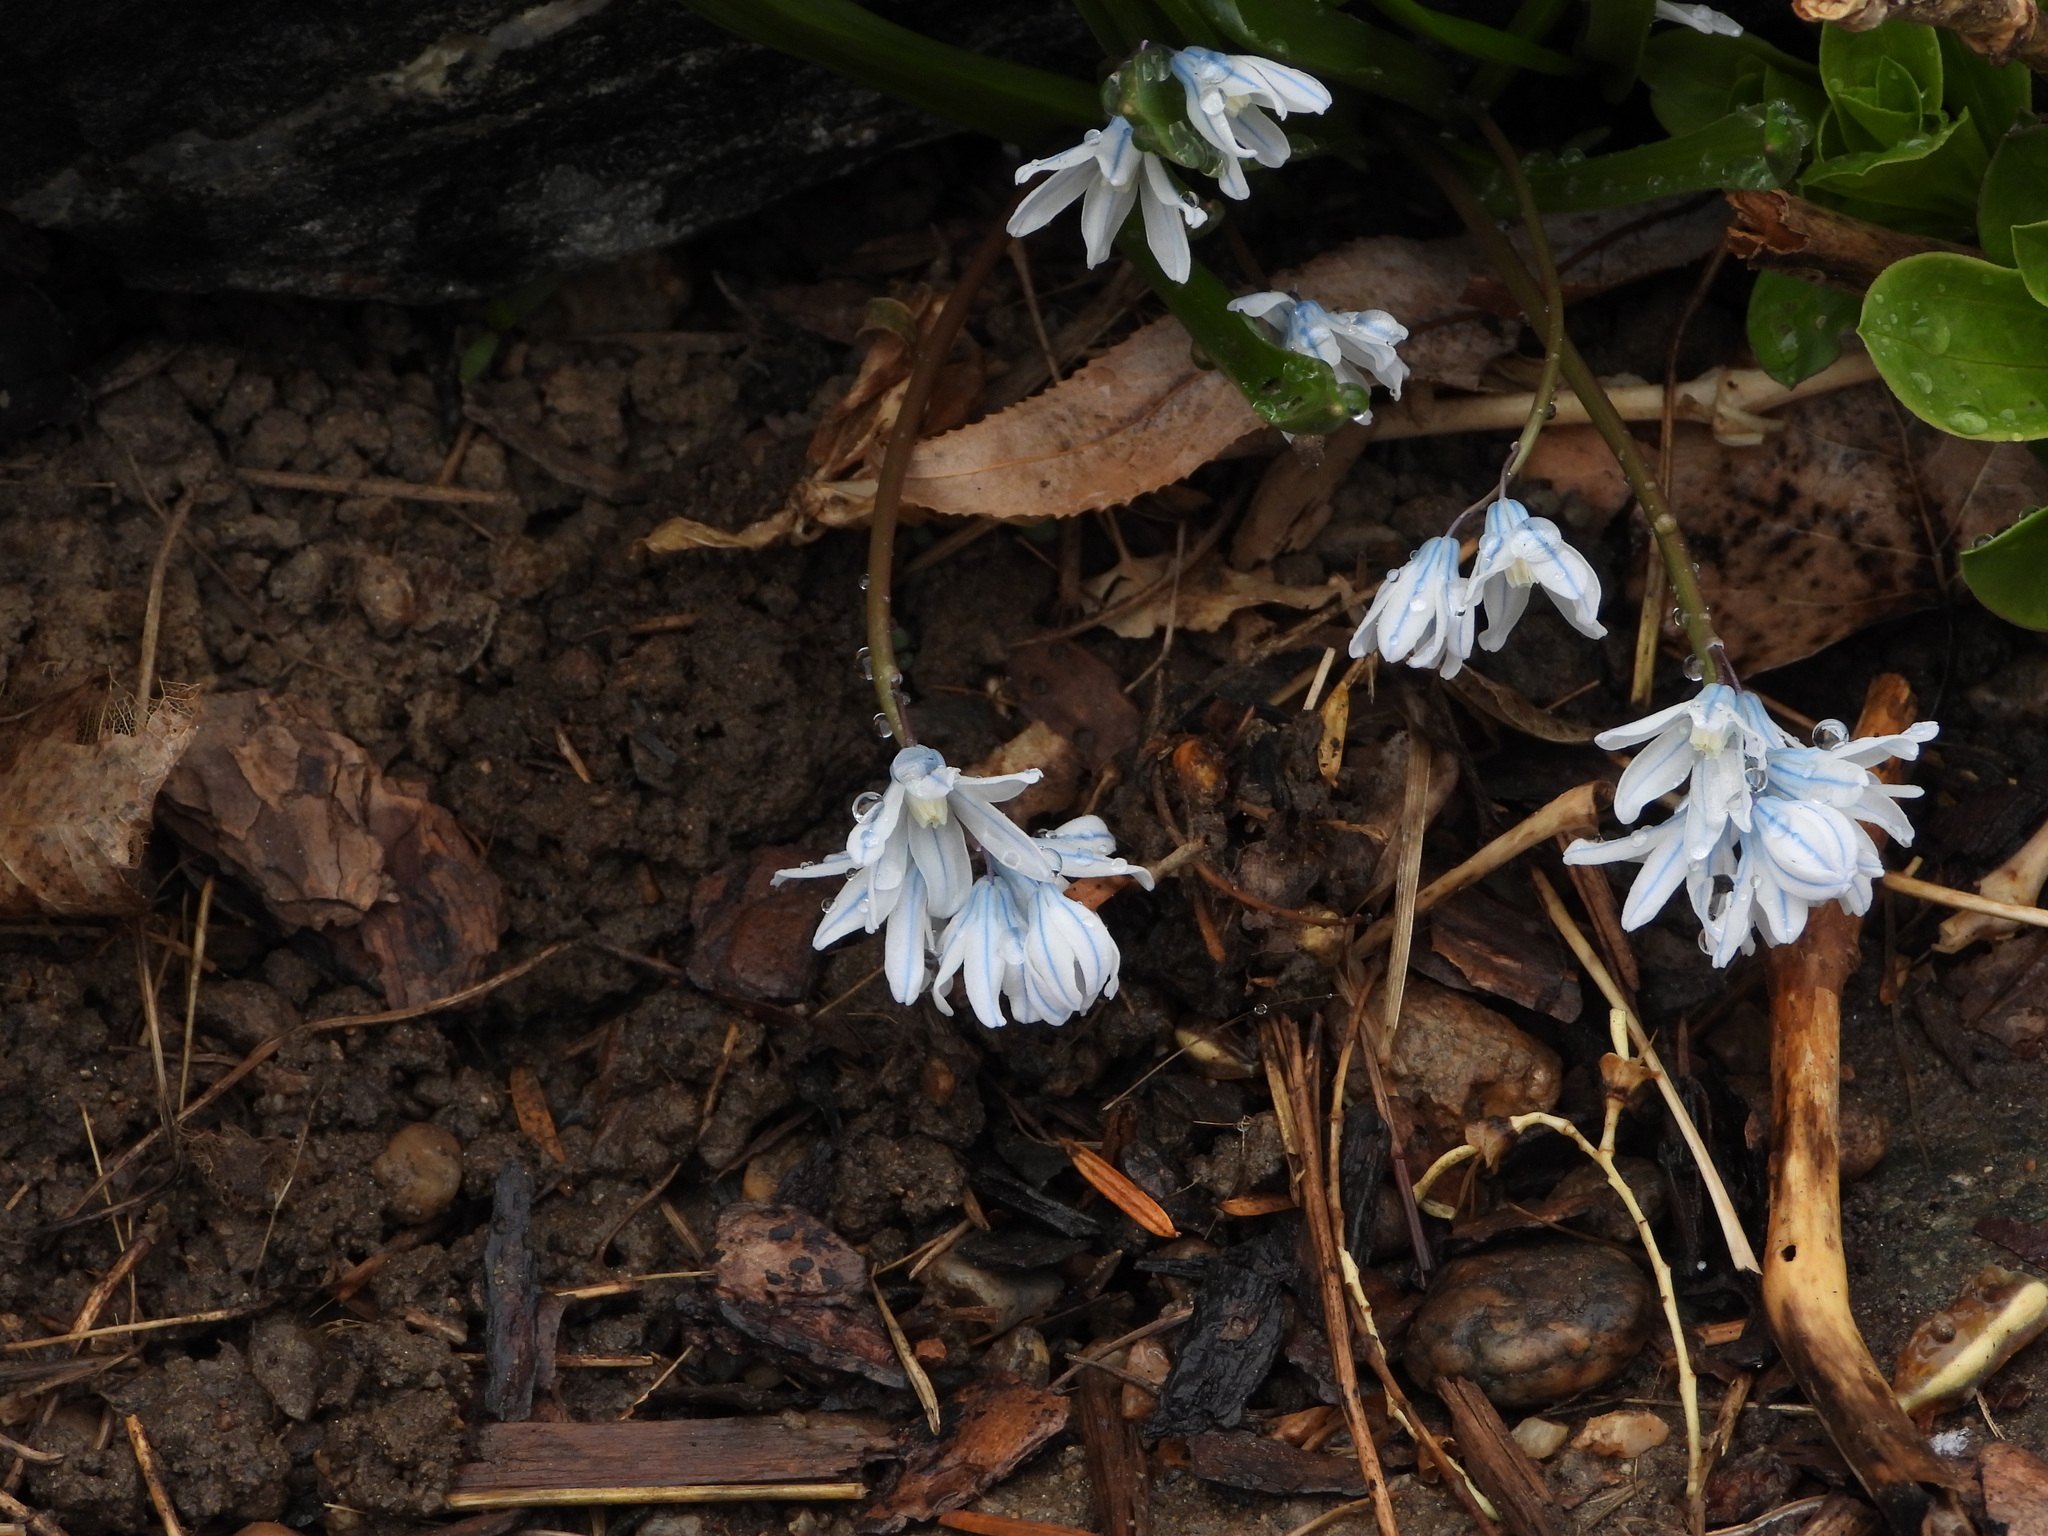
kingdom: Plantae
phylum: Tracheophyta
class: Liliopsida
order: Asparagales
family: Asparagaceae
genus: Puschkinia
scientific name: Puschkinia scilloides
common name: Striped squill
